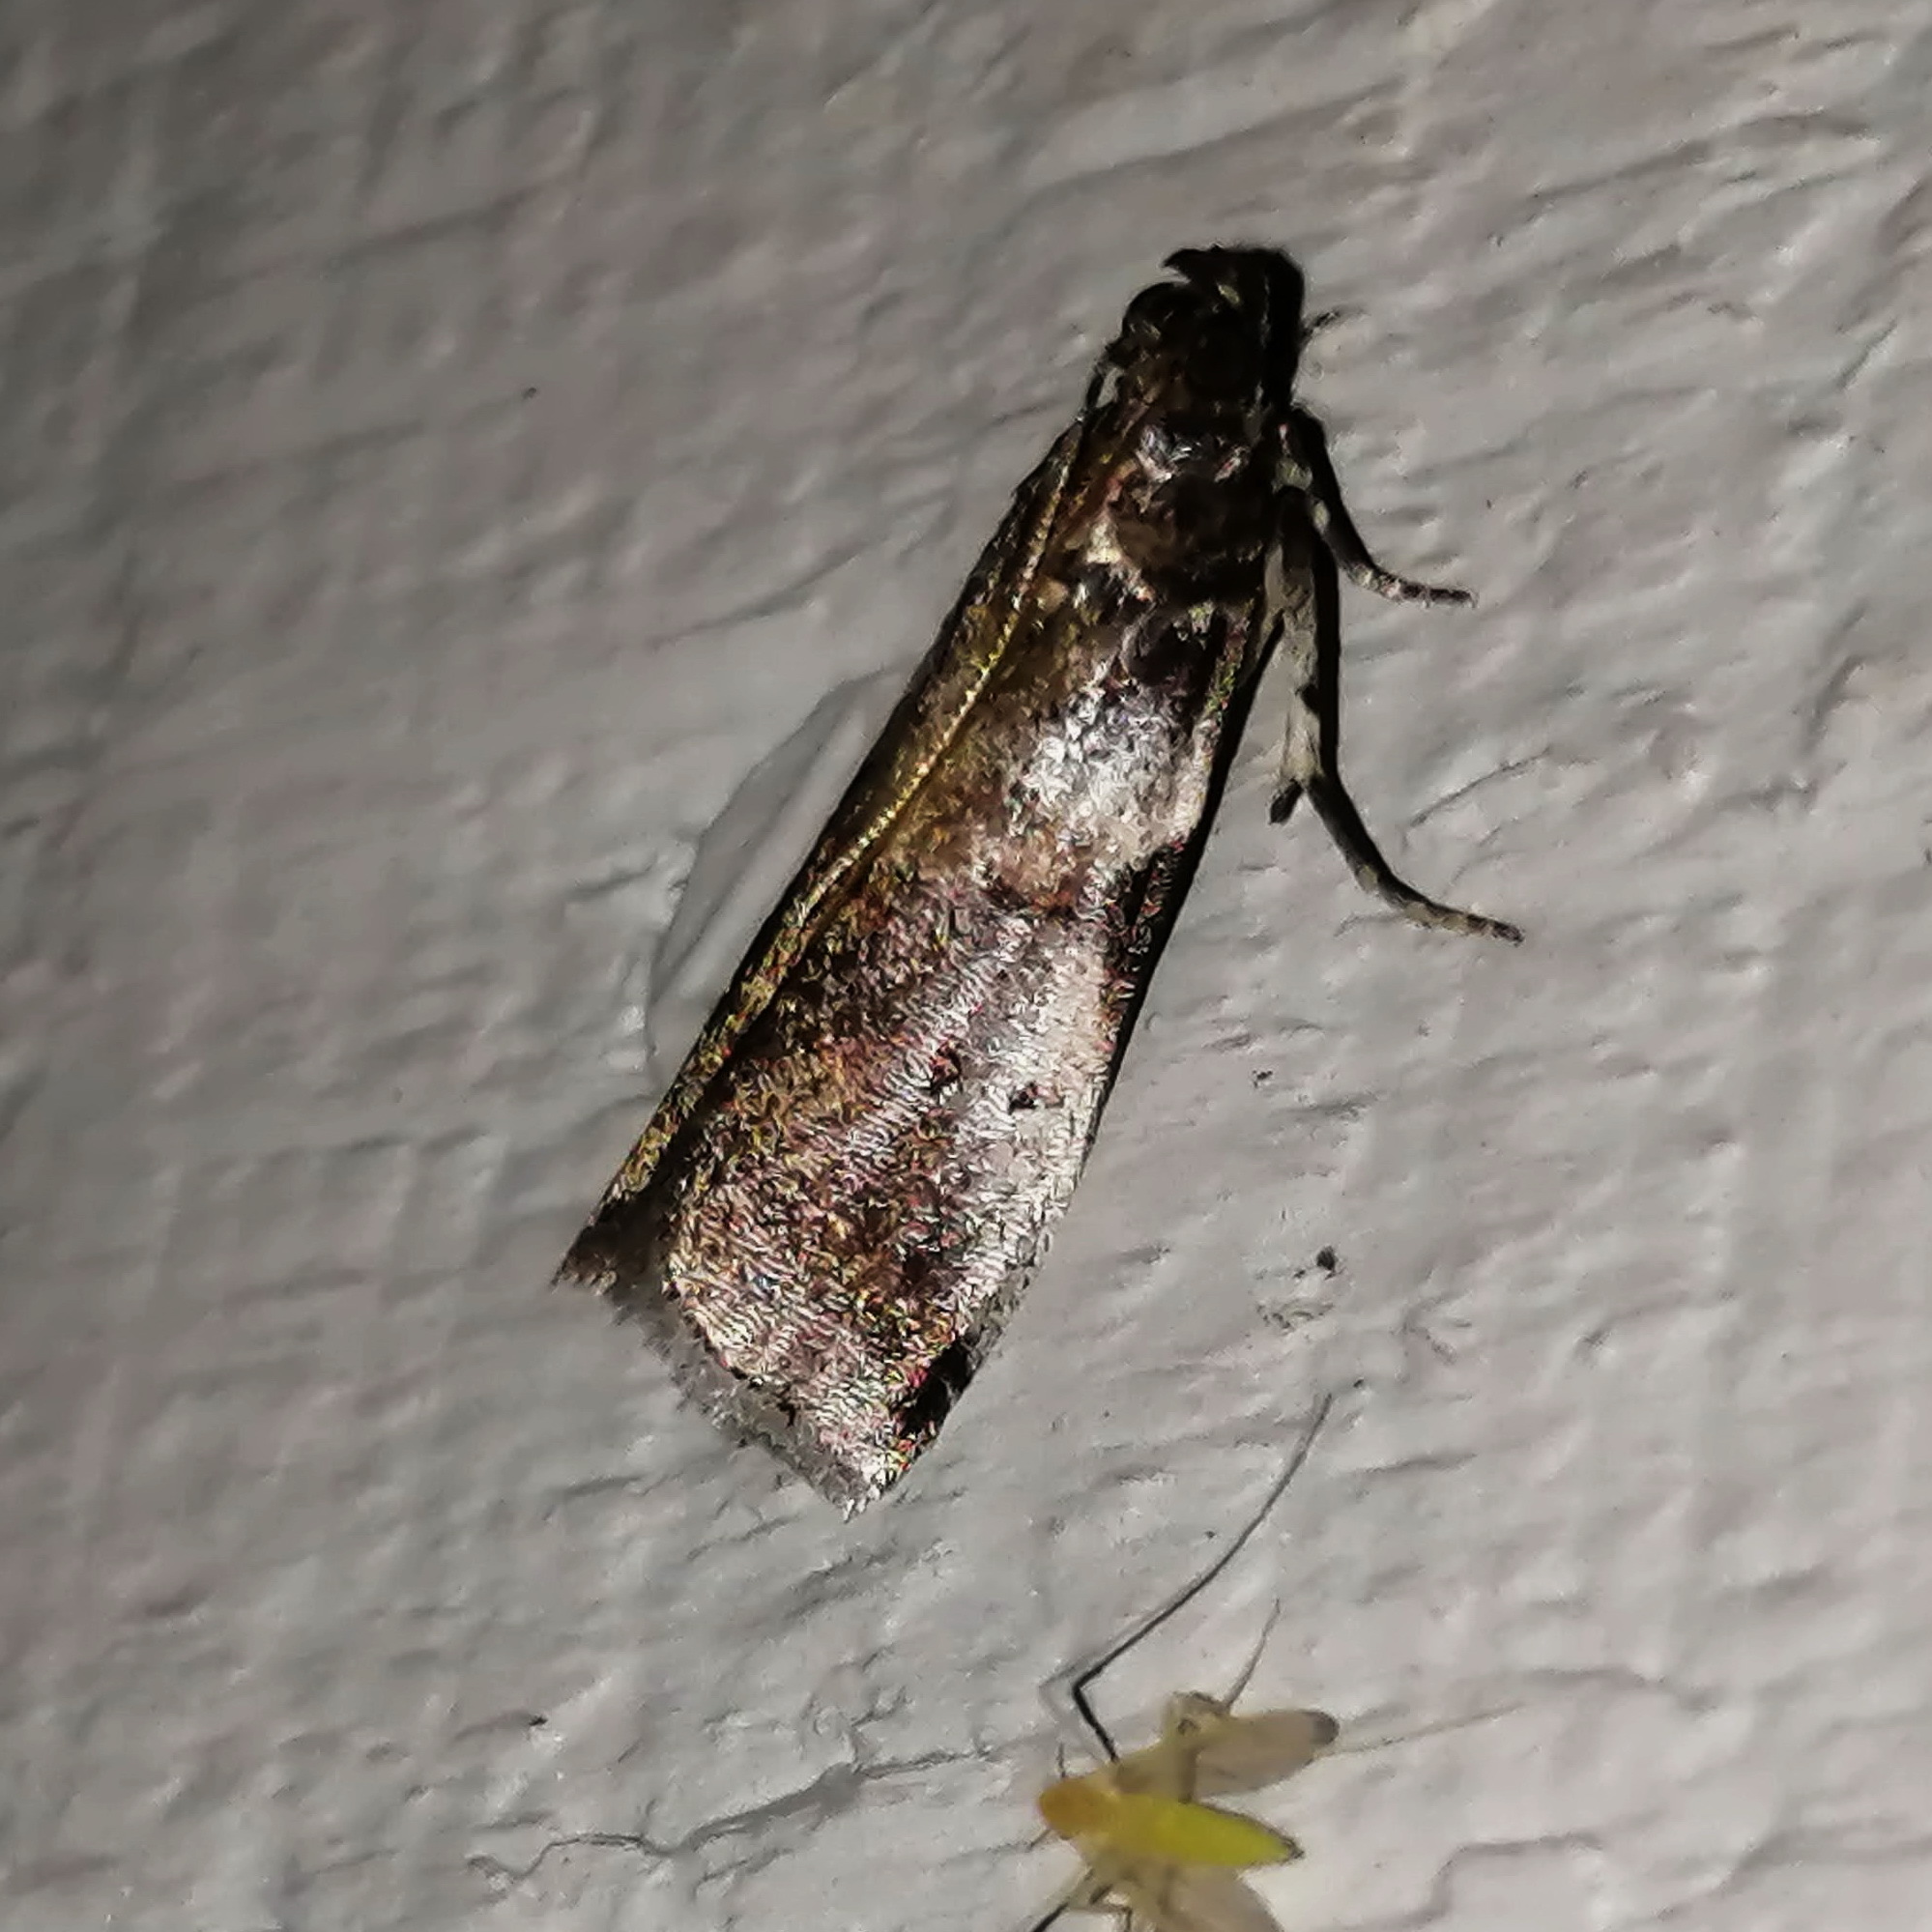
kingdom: Animalia
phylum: Arthropoda
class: Insecta
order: Lepidoptera
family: Pyralidae
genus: Acrobasis
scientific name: Acrobasis comptella
